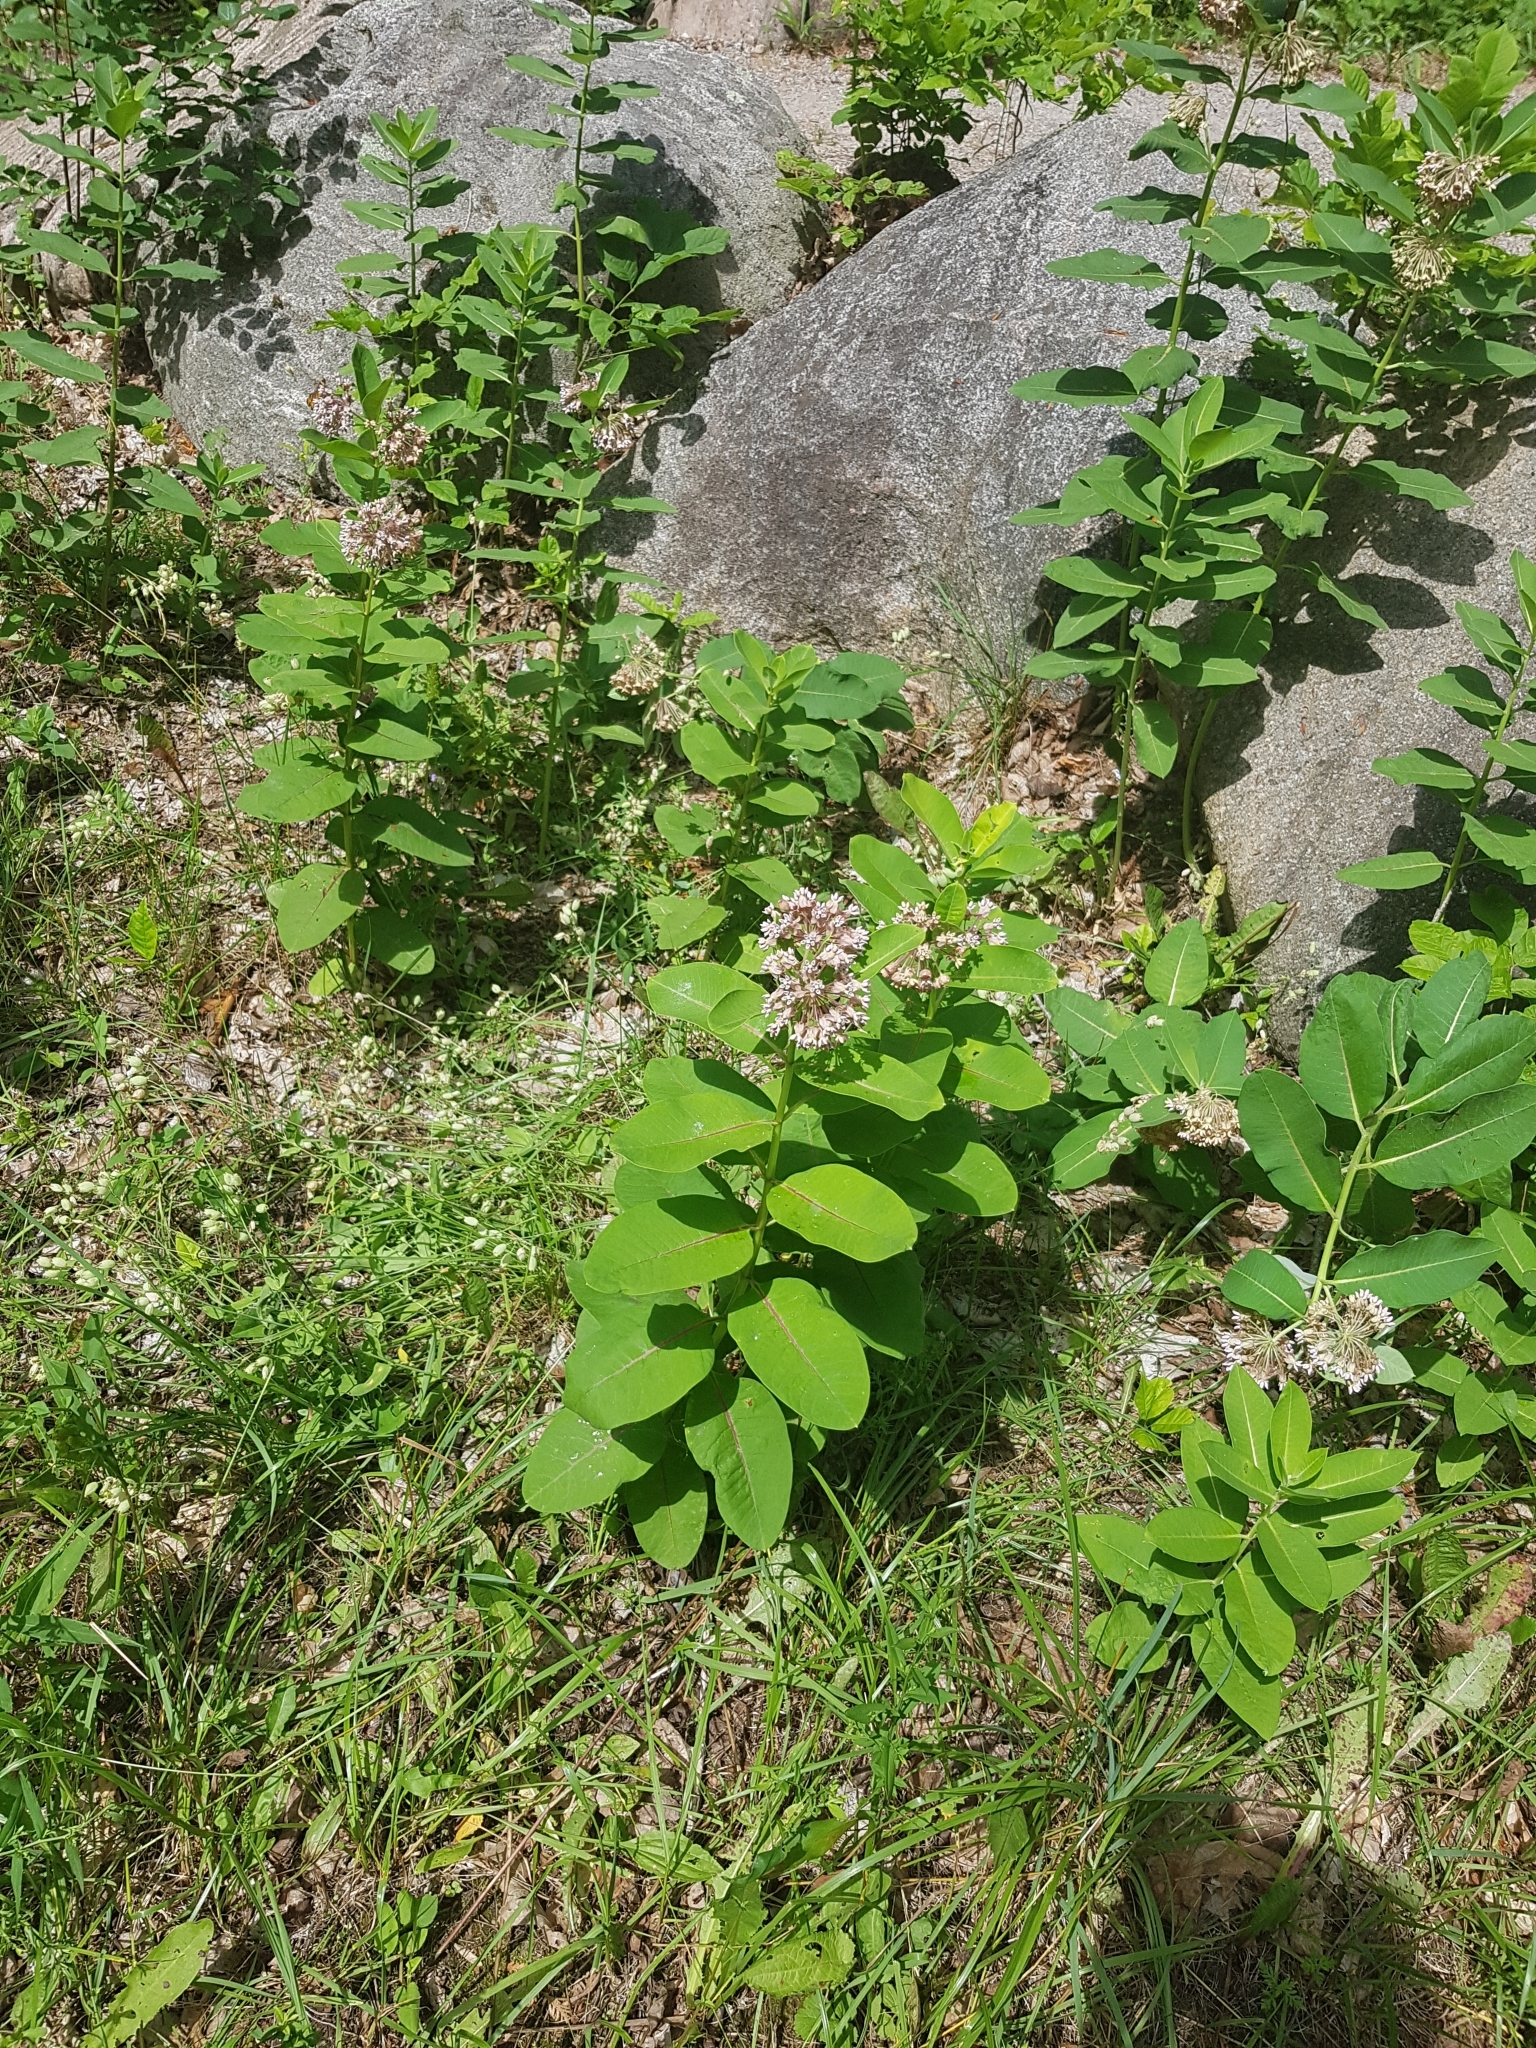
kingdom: Plantae
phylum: Tracheophyta
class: Magnoliopsida
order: Gentianales
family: Apocynaceae
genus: Asclepias
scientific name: Asclepias syriaca
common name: Common milkweed
